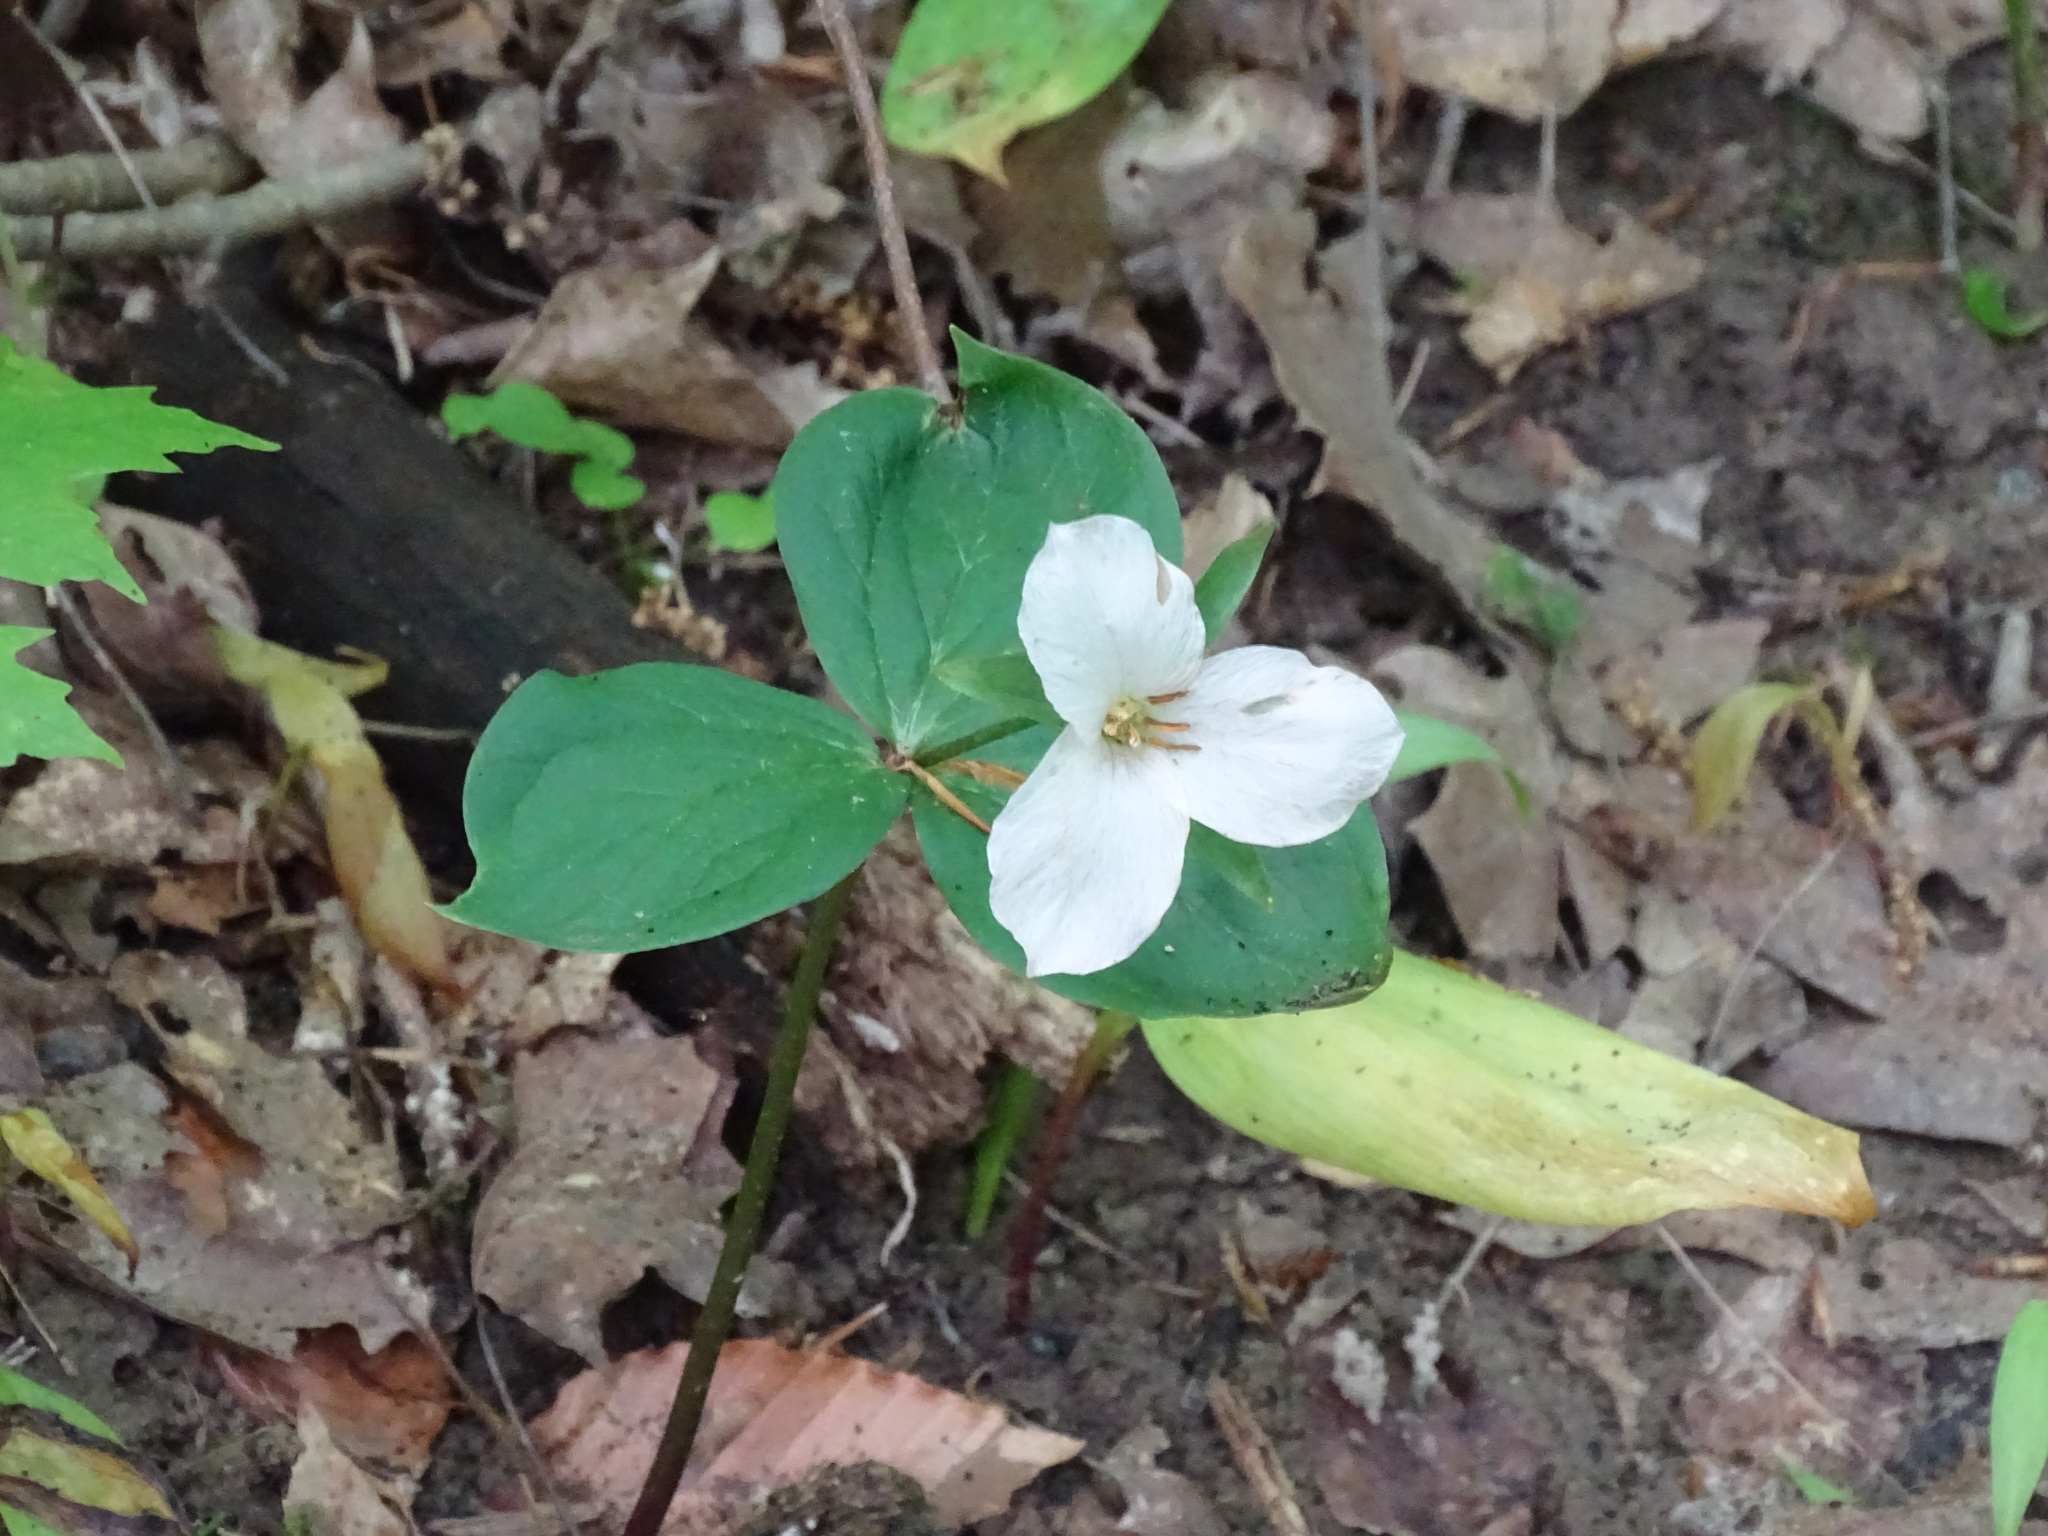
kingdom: Plantae
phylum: Tracheophyta
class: Liliopsida
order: Liliales
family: Melanthiaceae
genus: Trillium
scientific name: Trillium grandiflorum
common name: Great white trillium
